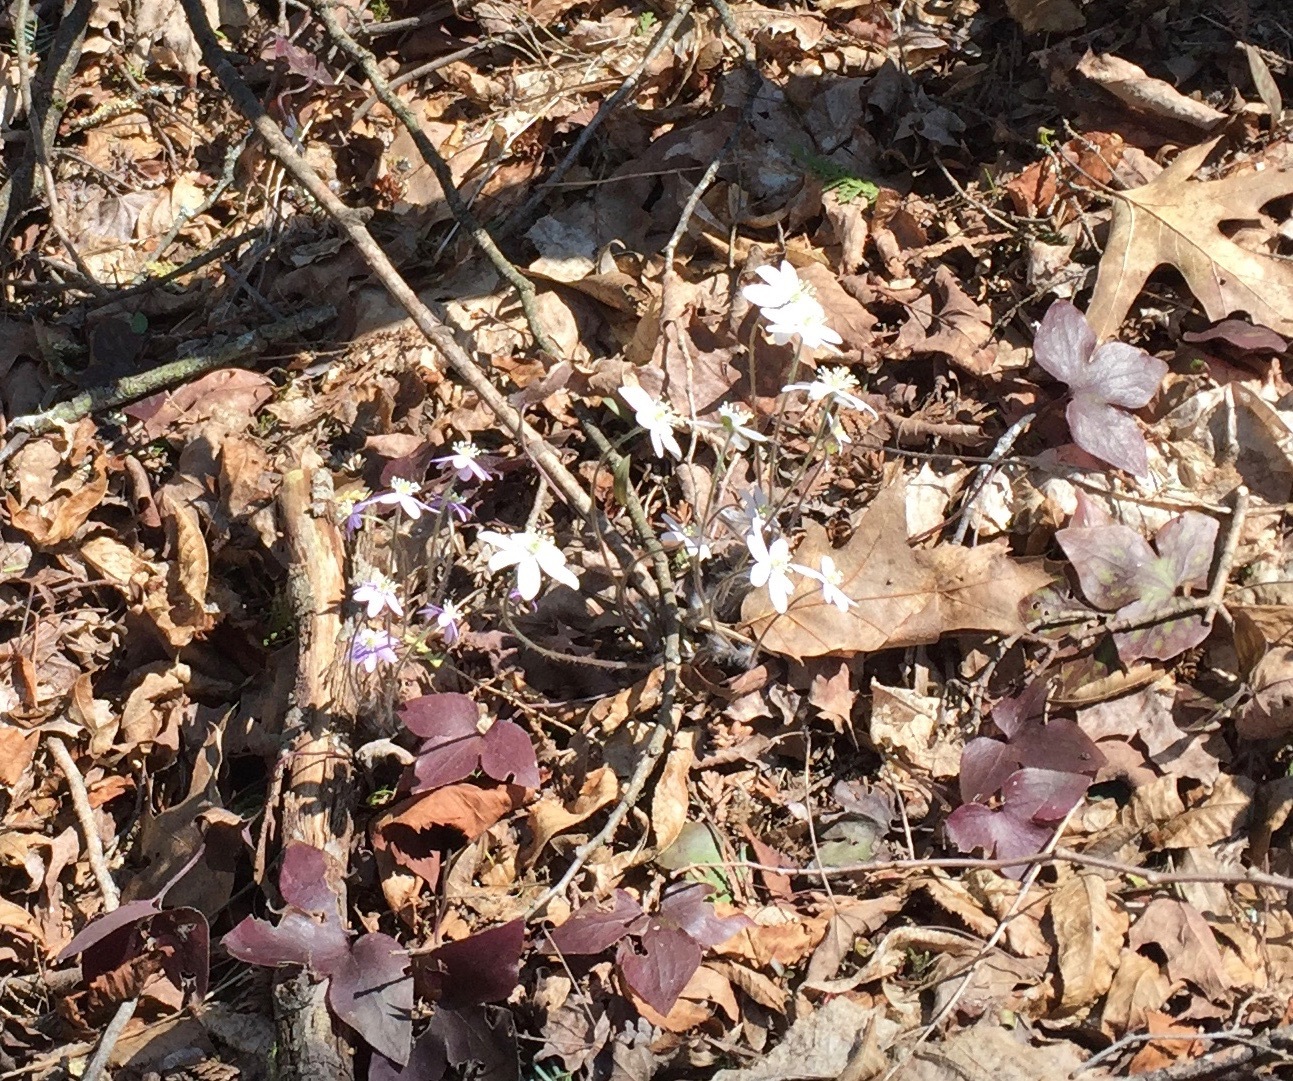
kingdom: Plantae
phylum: Tracheophyta
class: Magnoliopsida
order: Ranunculales
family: Ranunculaceae
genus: Hepatica
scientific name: Hepatica acutiloba
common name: Sharp-lobed hepatica
